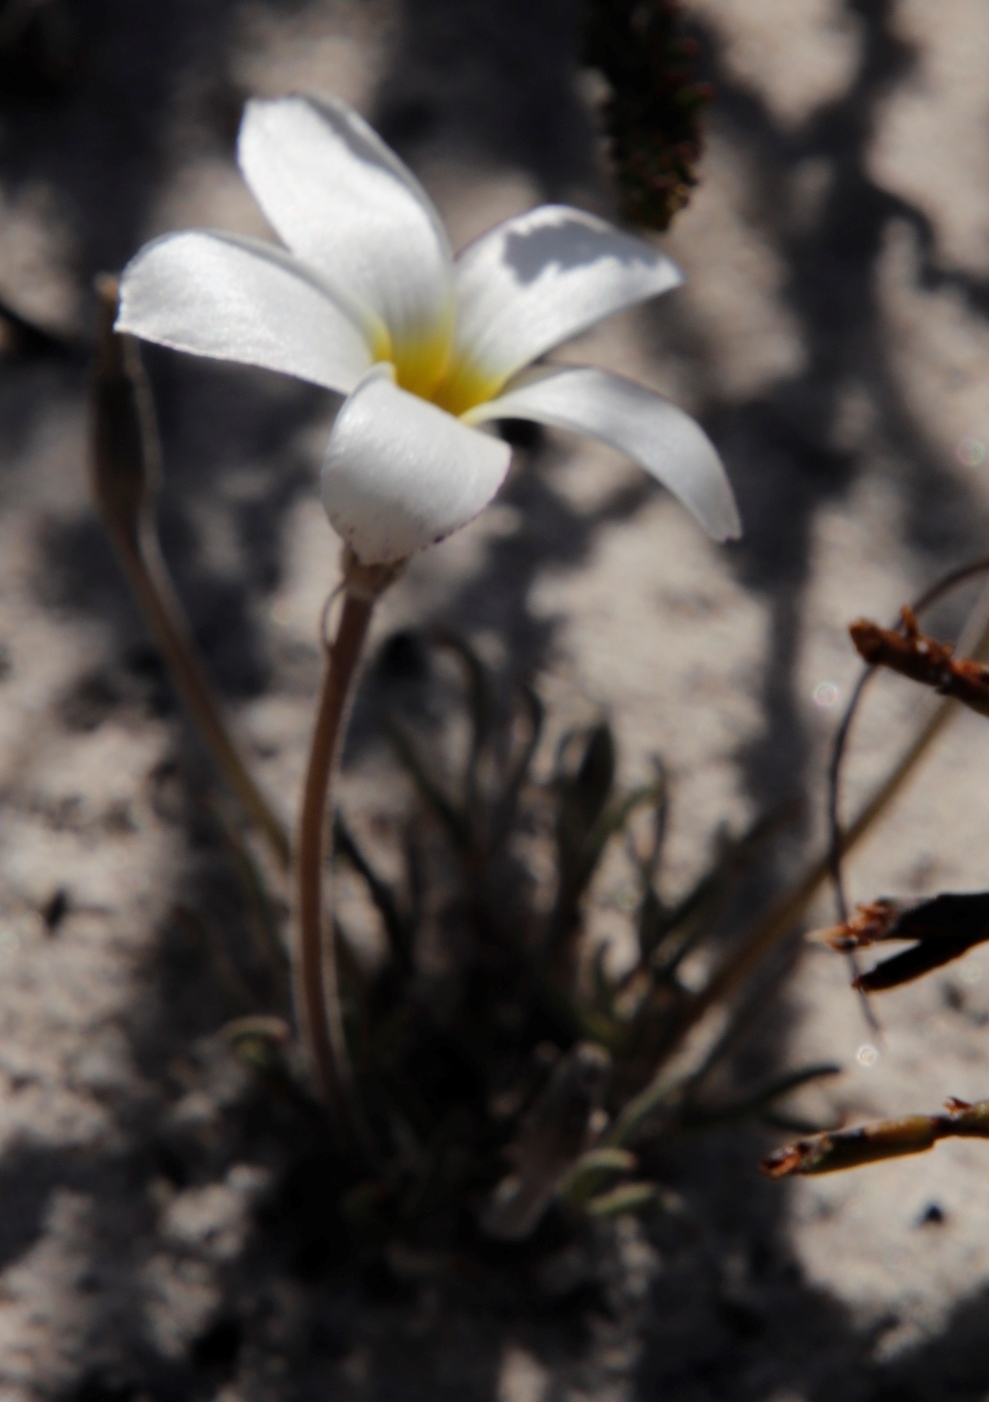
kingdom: Plantae
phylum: Tracheophyta
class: Magnoliopsida
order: Oxalidales
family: Oxalidaceae
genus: Oxalis
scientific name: Oxalis argyrophylla
